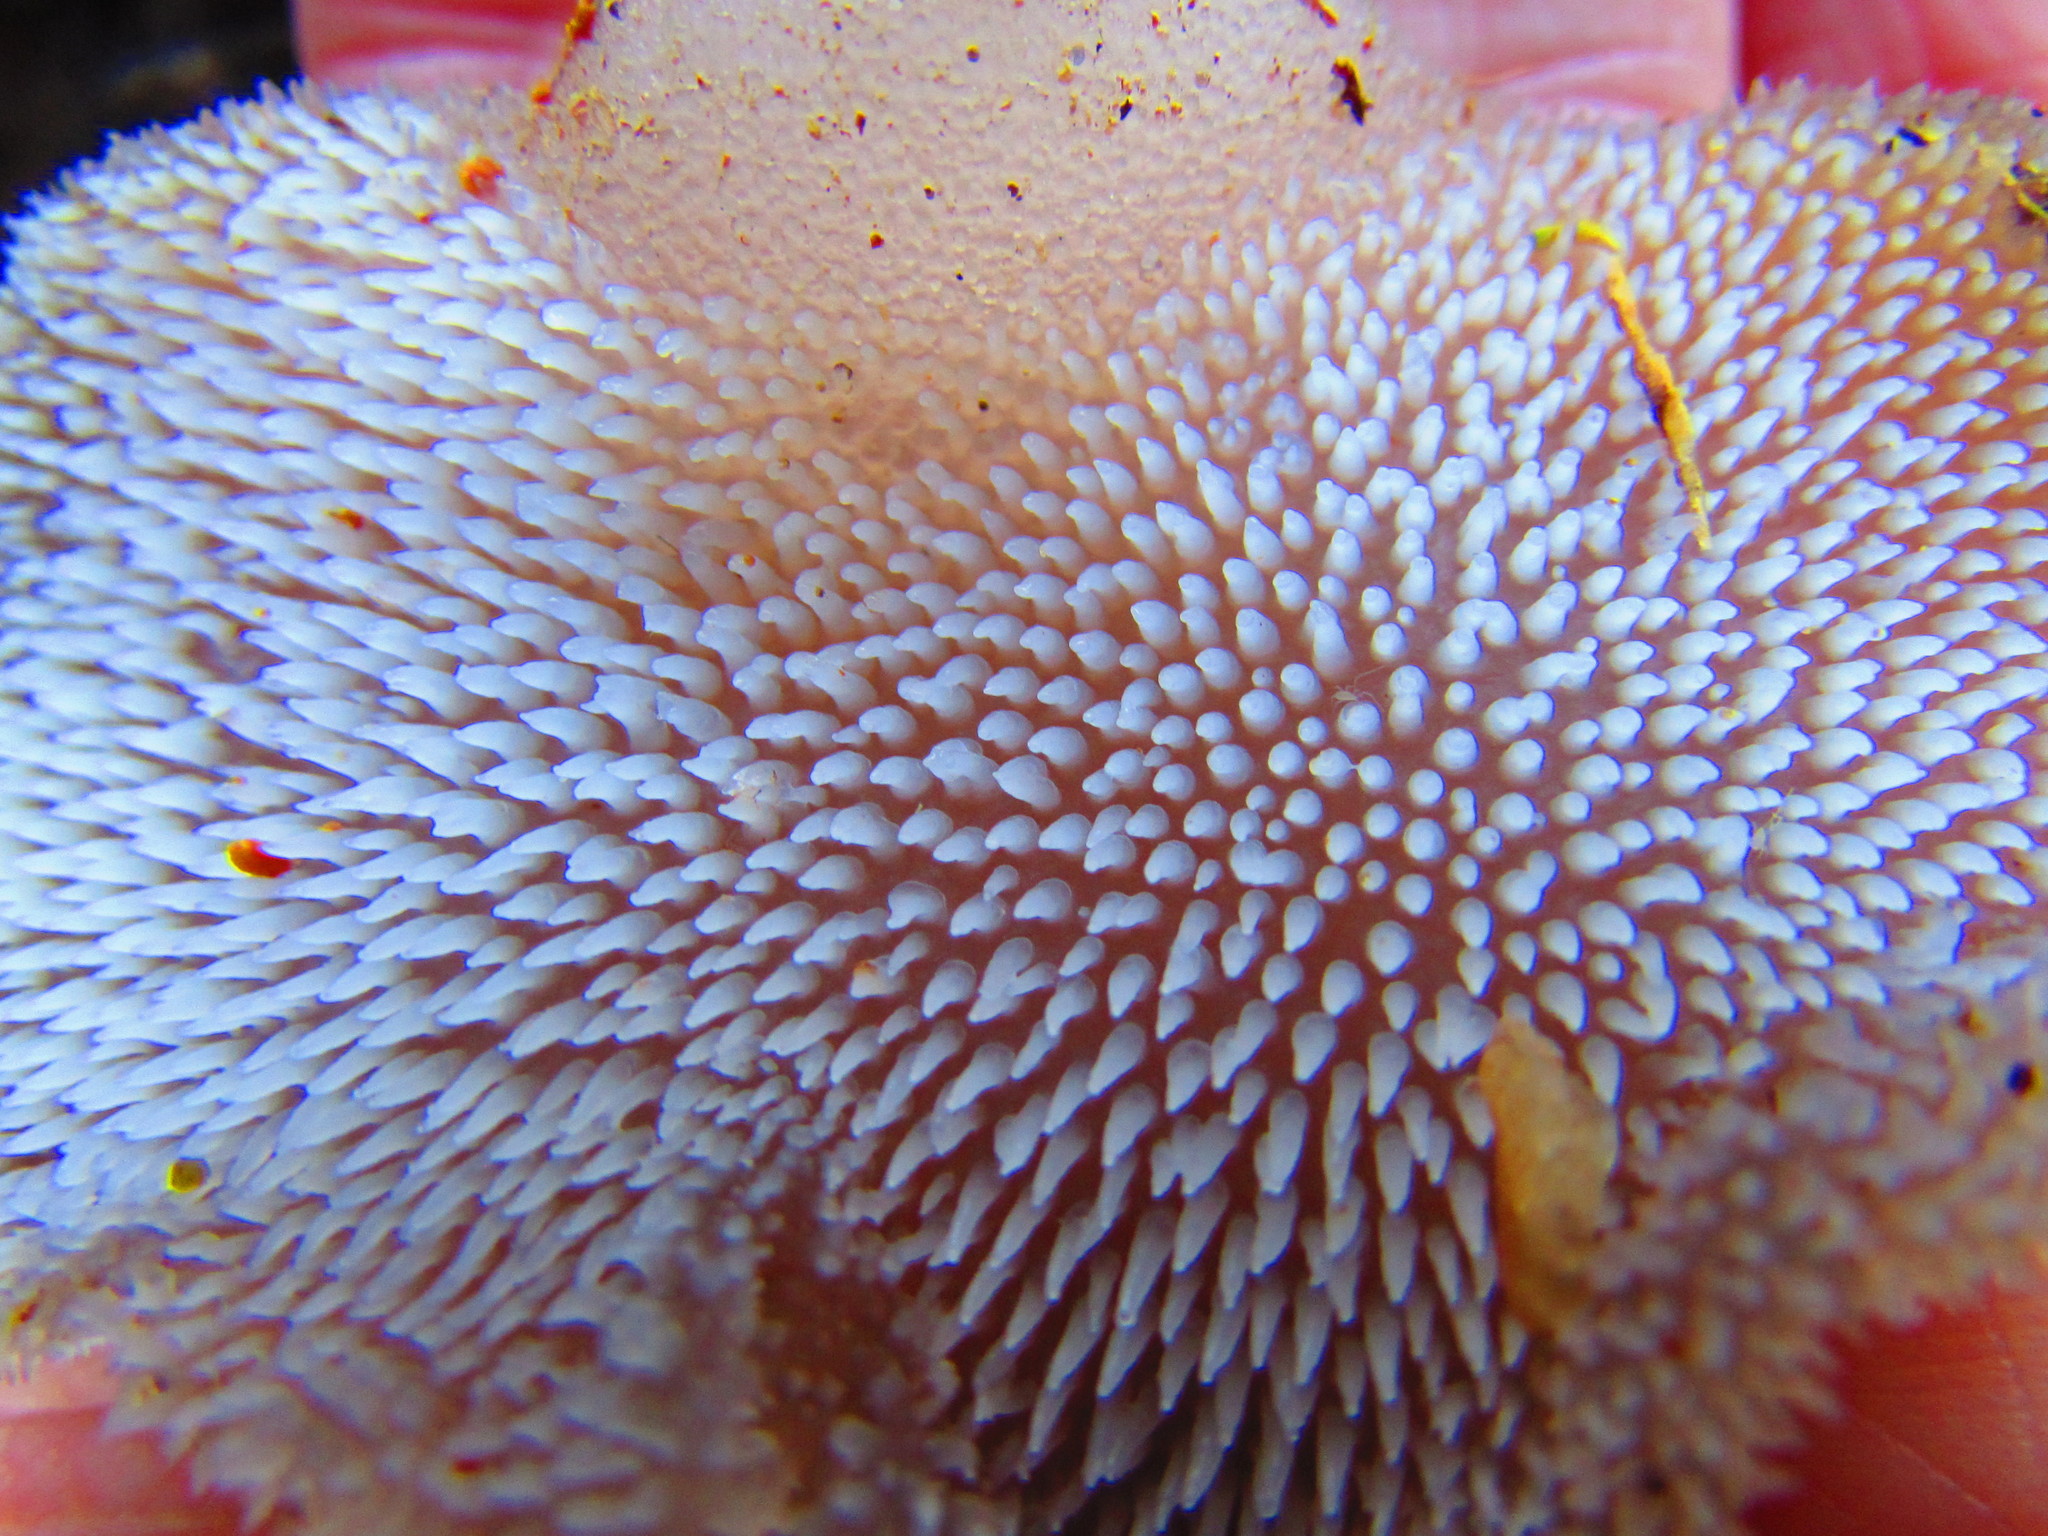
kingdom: Fungi
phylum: Basidiomycota
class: Agaricomycetes
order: Auriculariales
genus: Pseudohydnum
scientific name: Pseudohydnum gelatinosum
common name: Jelly tongue
